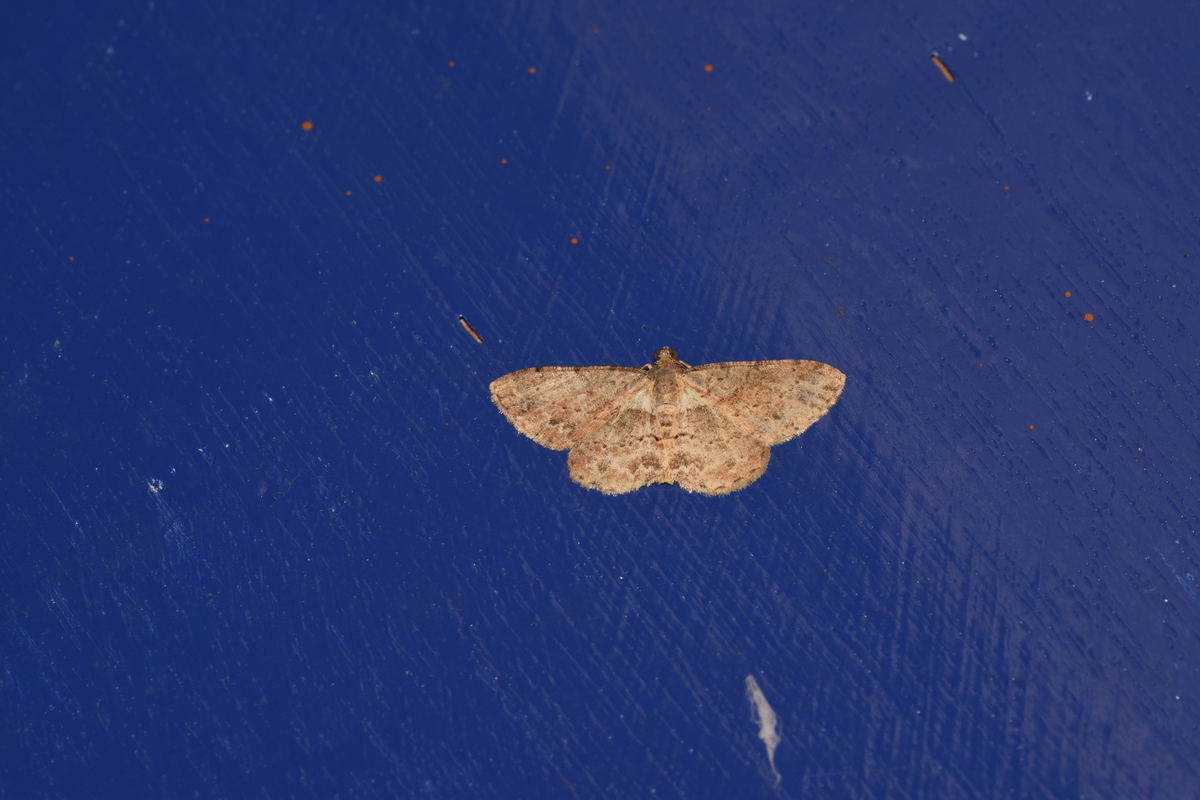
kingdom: Animalia
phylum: Arthropoda
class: Insecta
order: Lepidoptera
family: Geometridae
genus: Psilalcis
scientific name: Psilalcis subochrea
